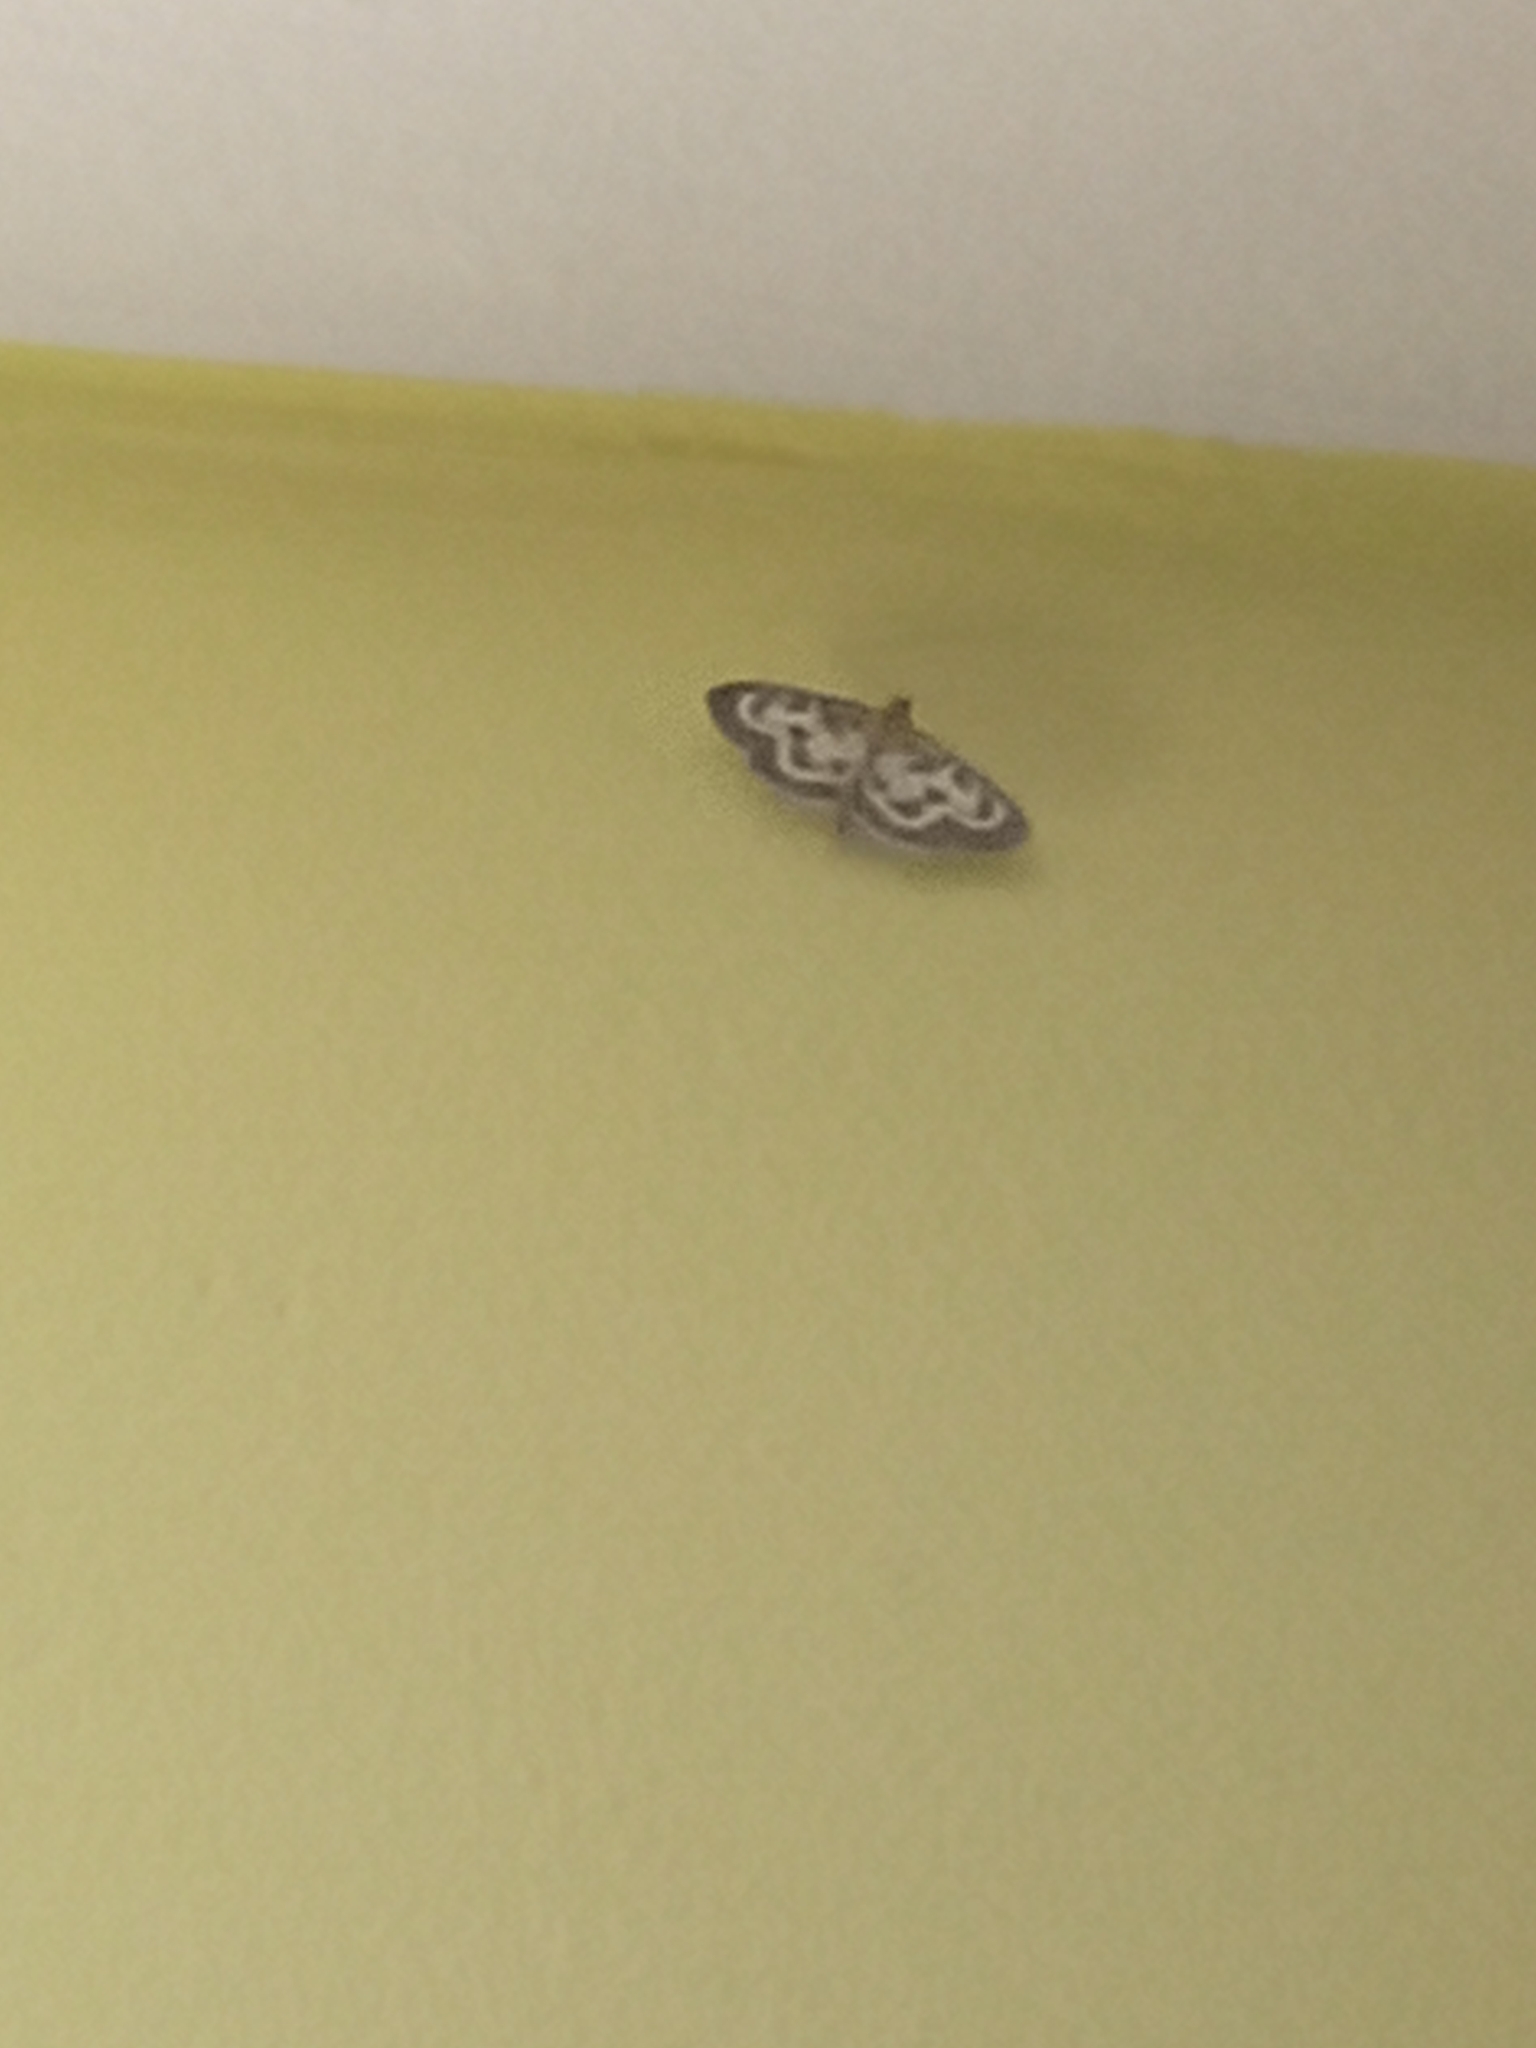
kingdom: Animalia
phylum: Arthropoda
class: Insecta
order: Lepidoptera
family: Crambidae
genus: Anania
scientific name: Anania hortulata
